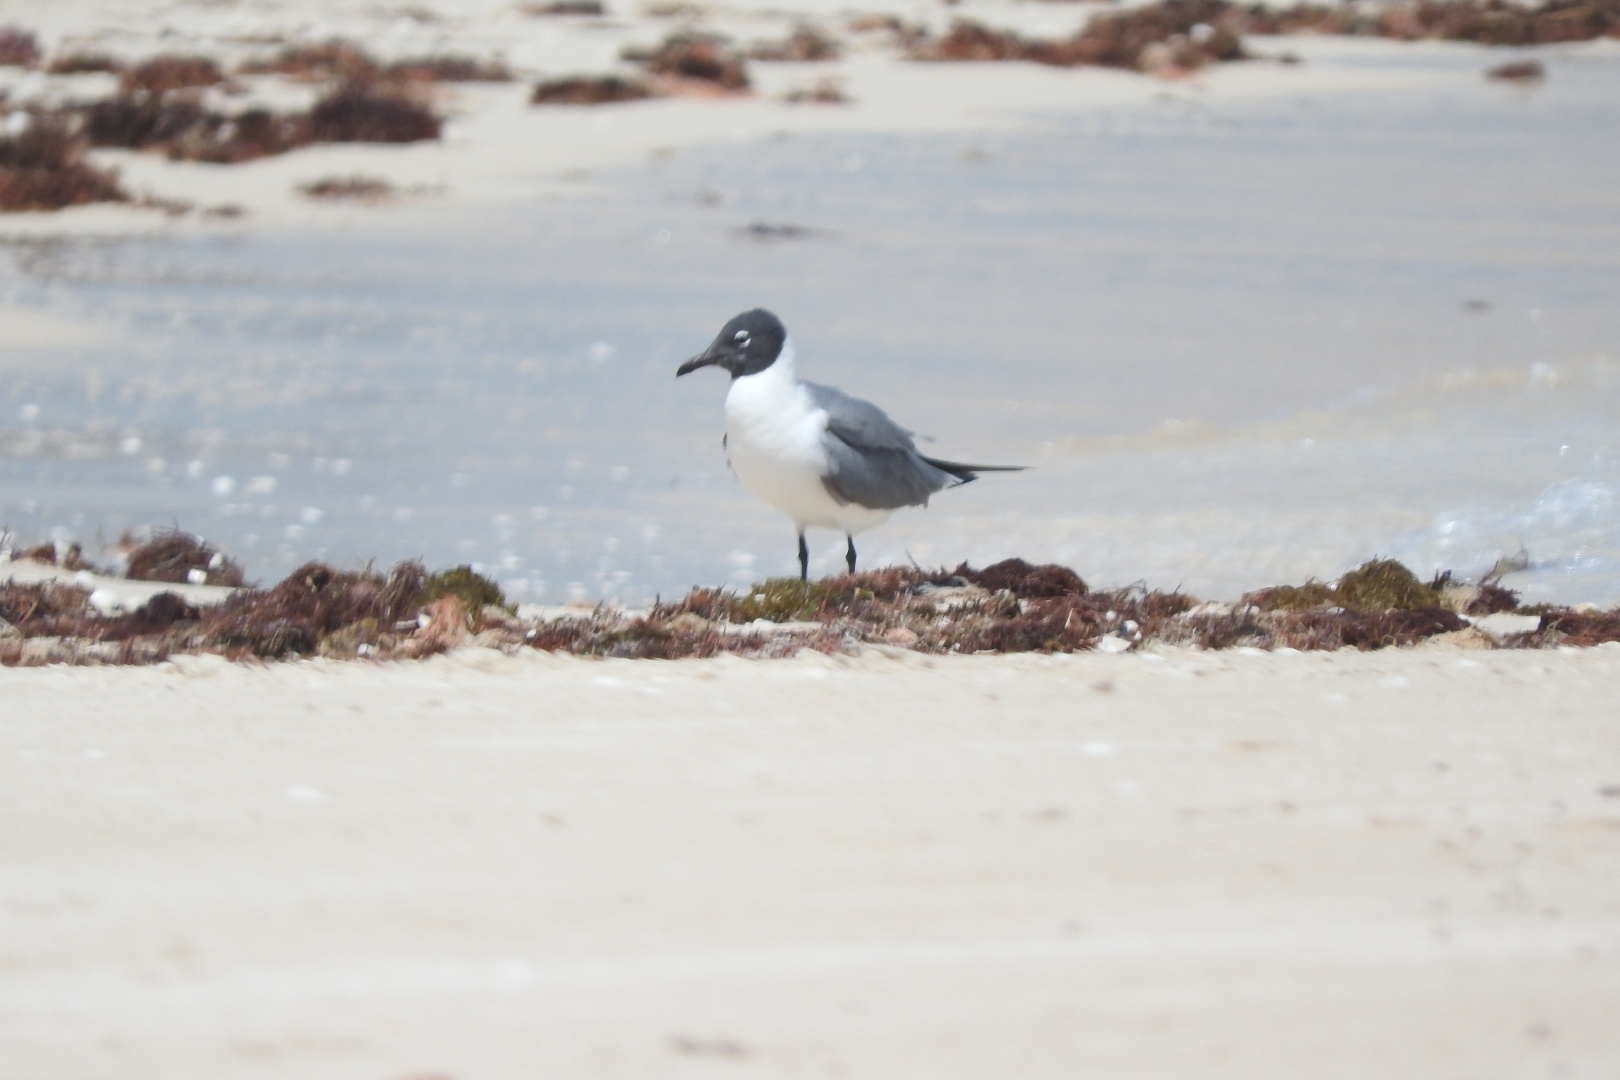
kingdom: Animalia
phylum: Chordata
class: Aves
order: Charadriiformes
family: Laridae
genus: Leucophaeus
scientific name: Leucophaeus pipixcan
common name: Franklin's gull
